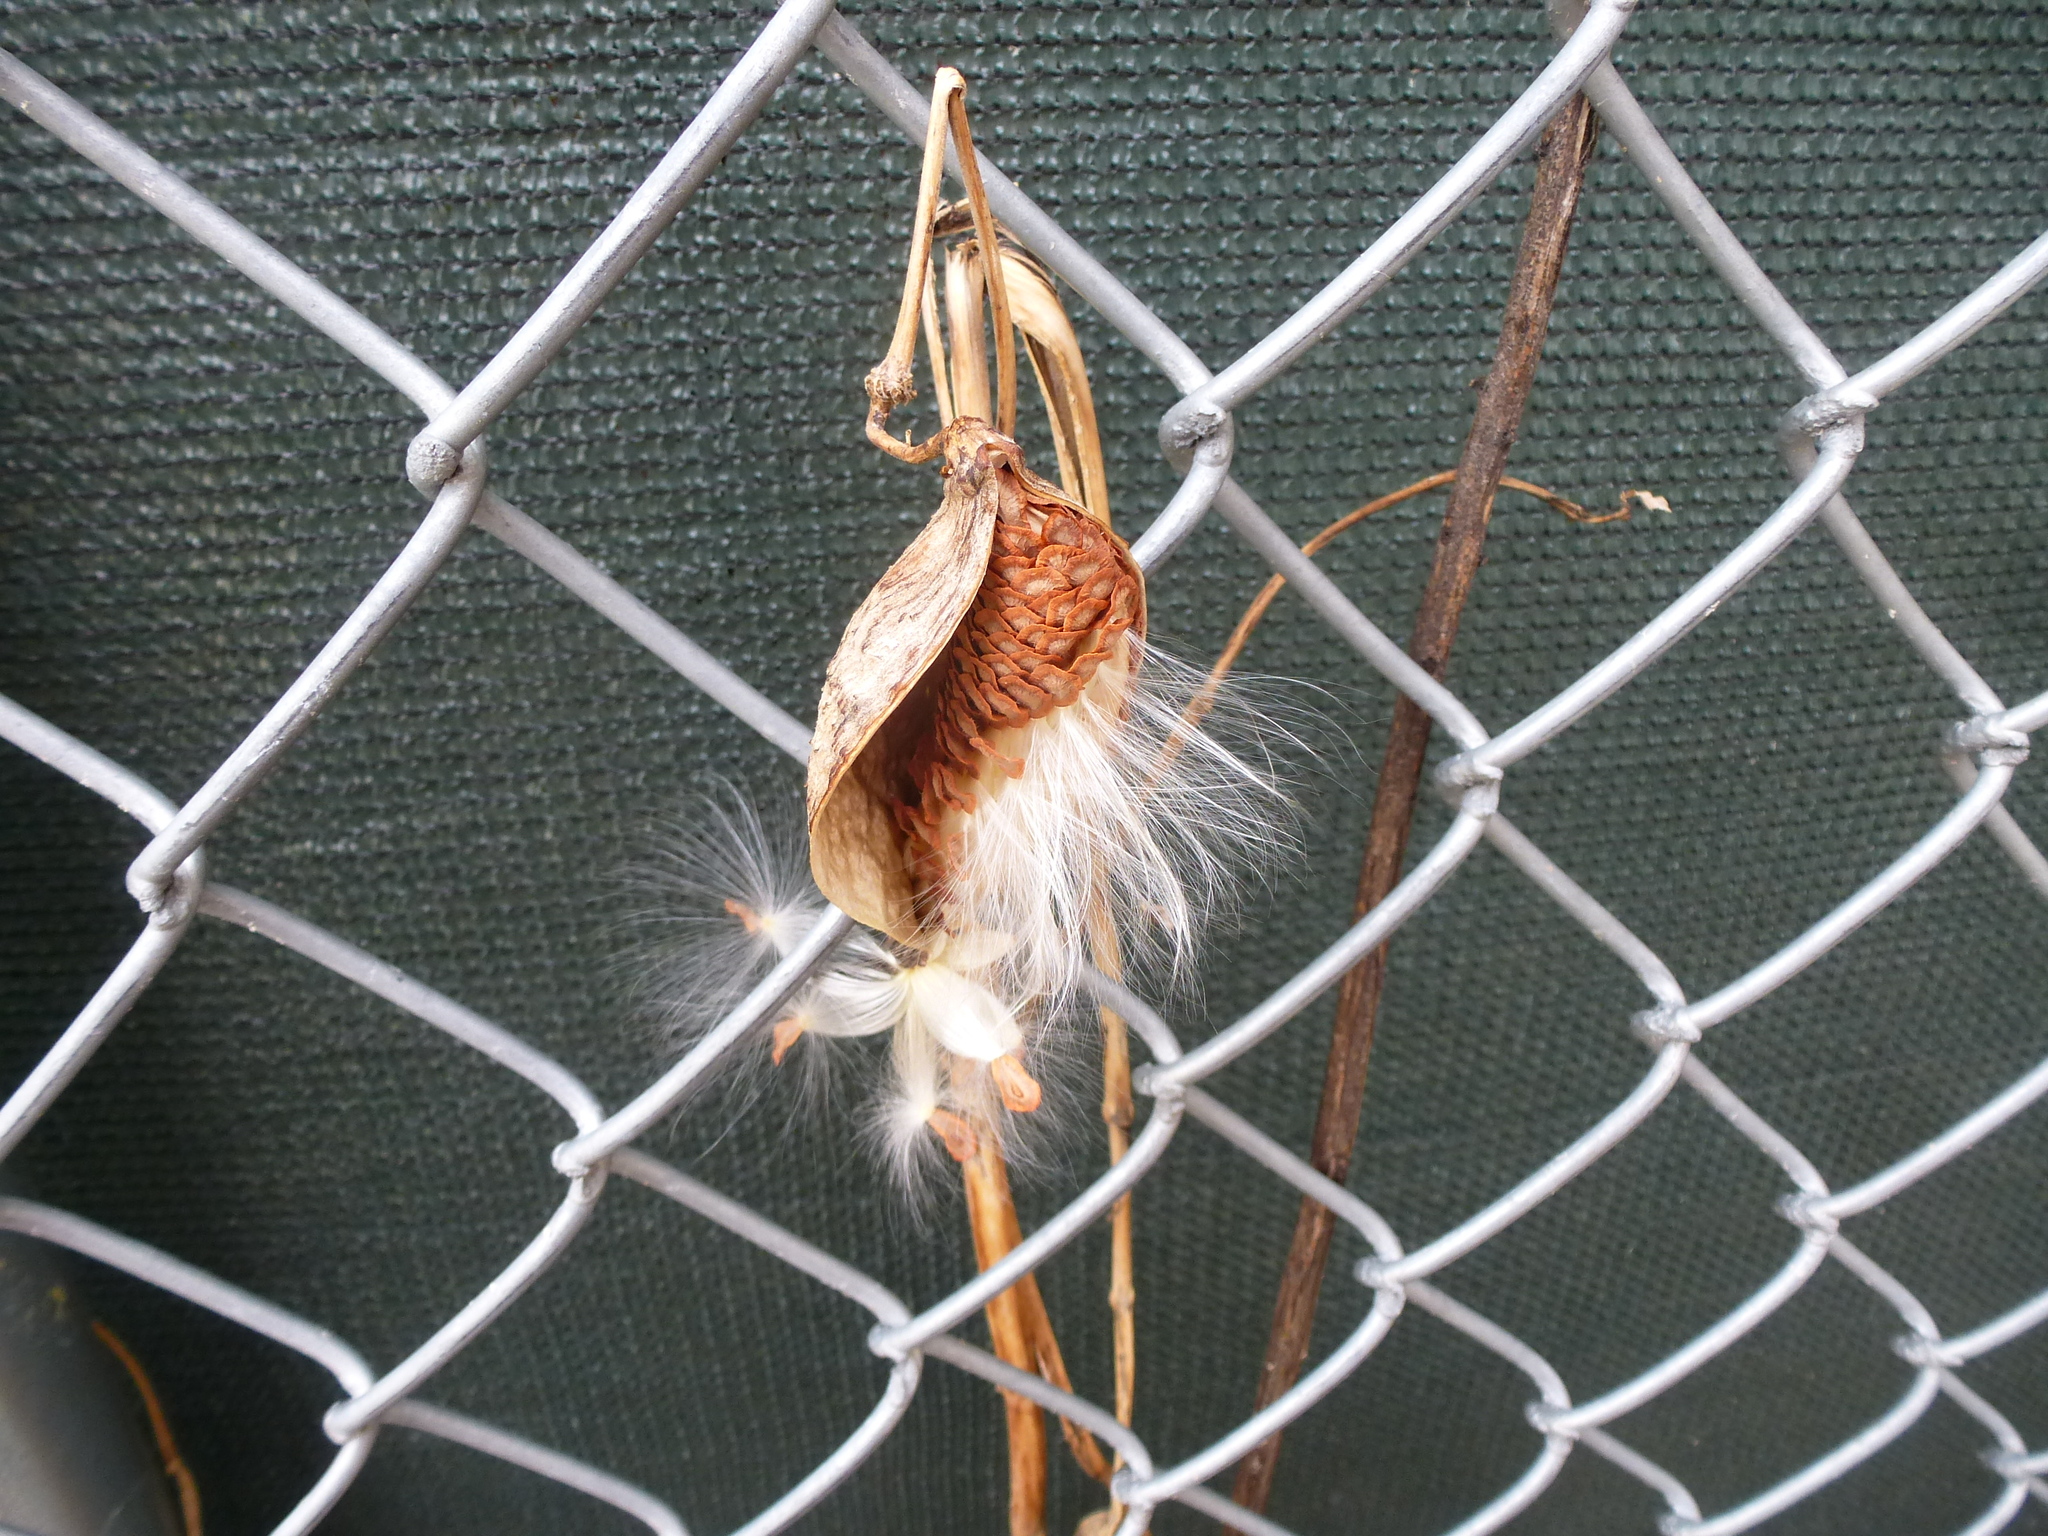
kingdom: Plantae
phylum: Tracheophyta
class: Magnoliopsida
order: Gentianales
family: Apocynaceae
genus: Asclepias
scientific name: Asclepias syriaca
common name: Common milkweed
